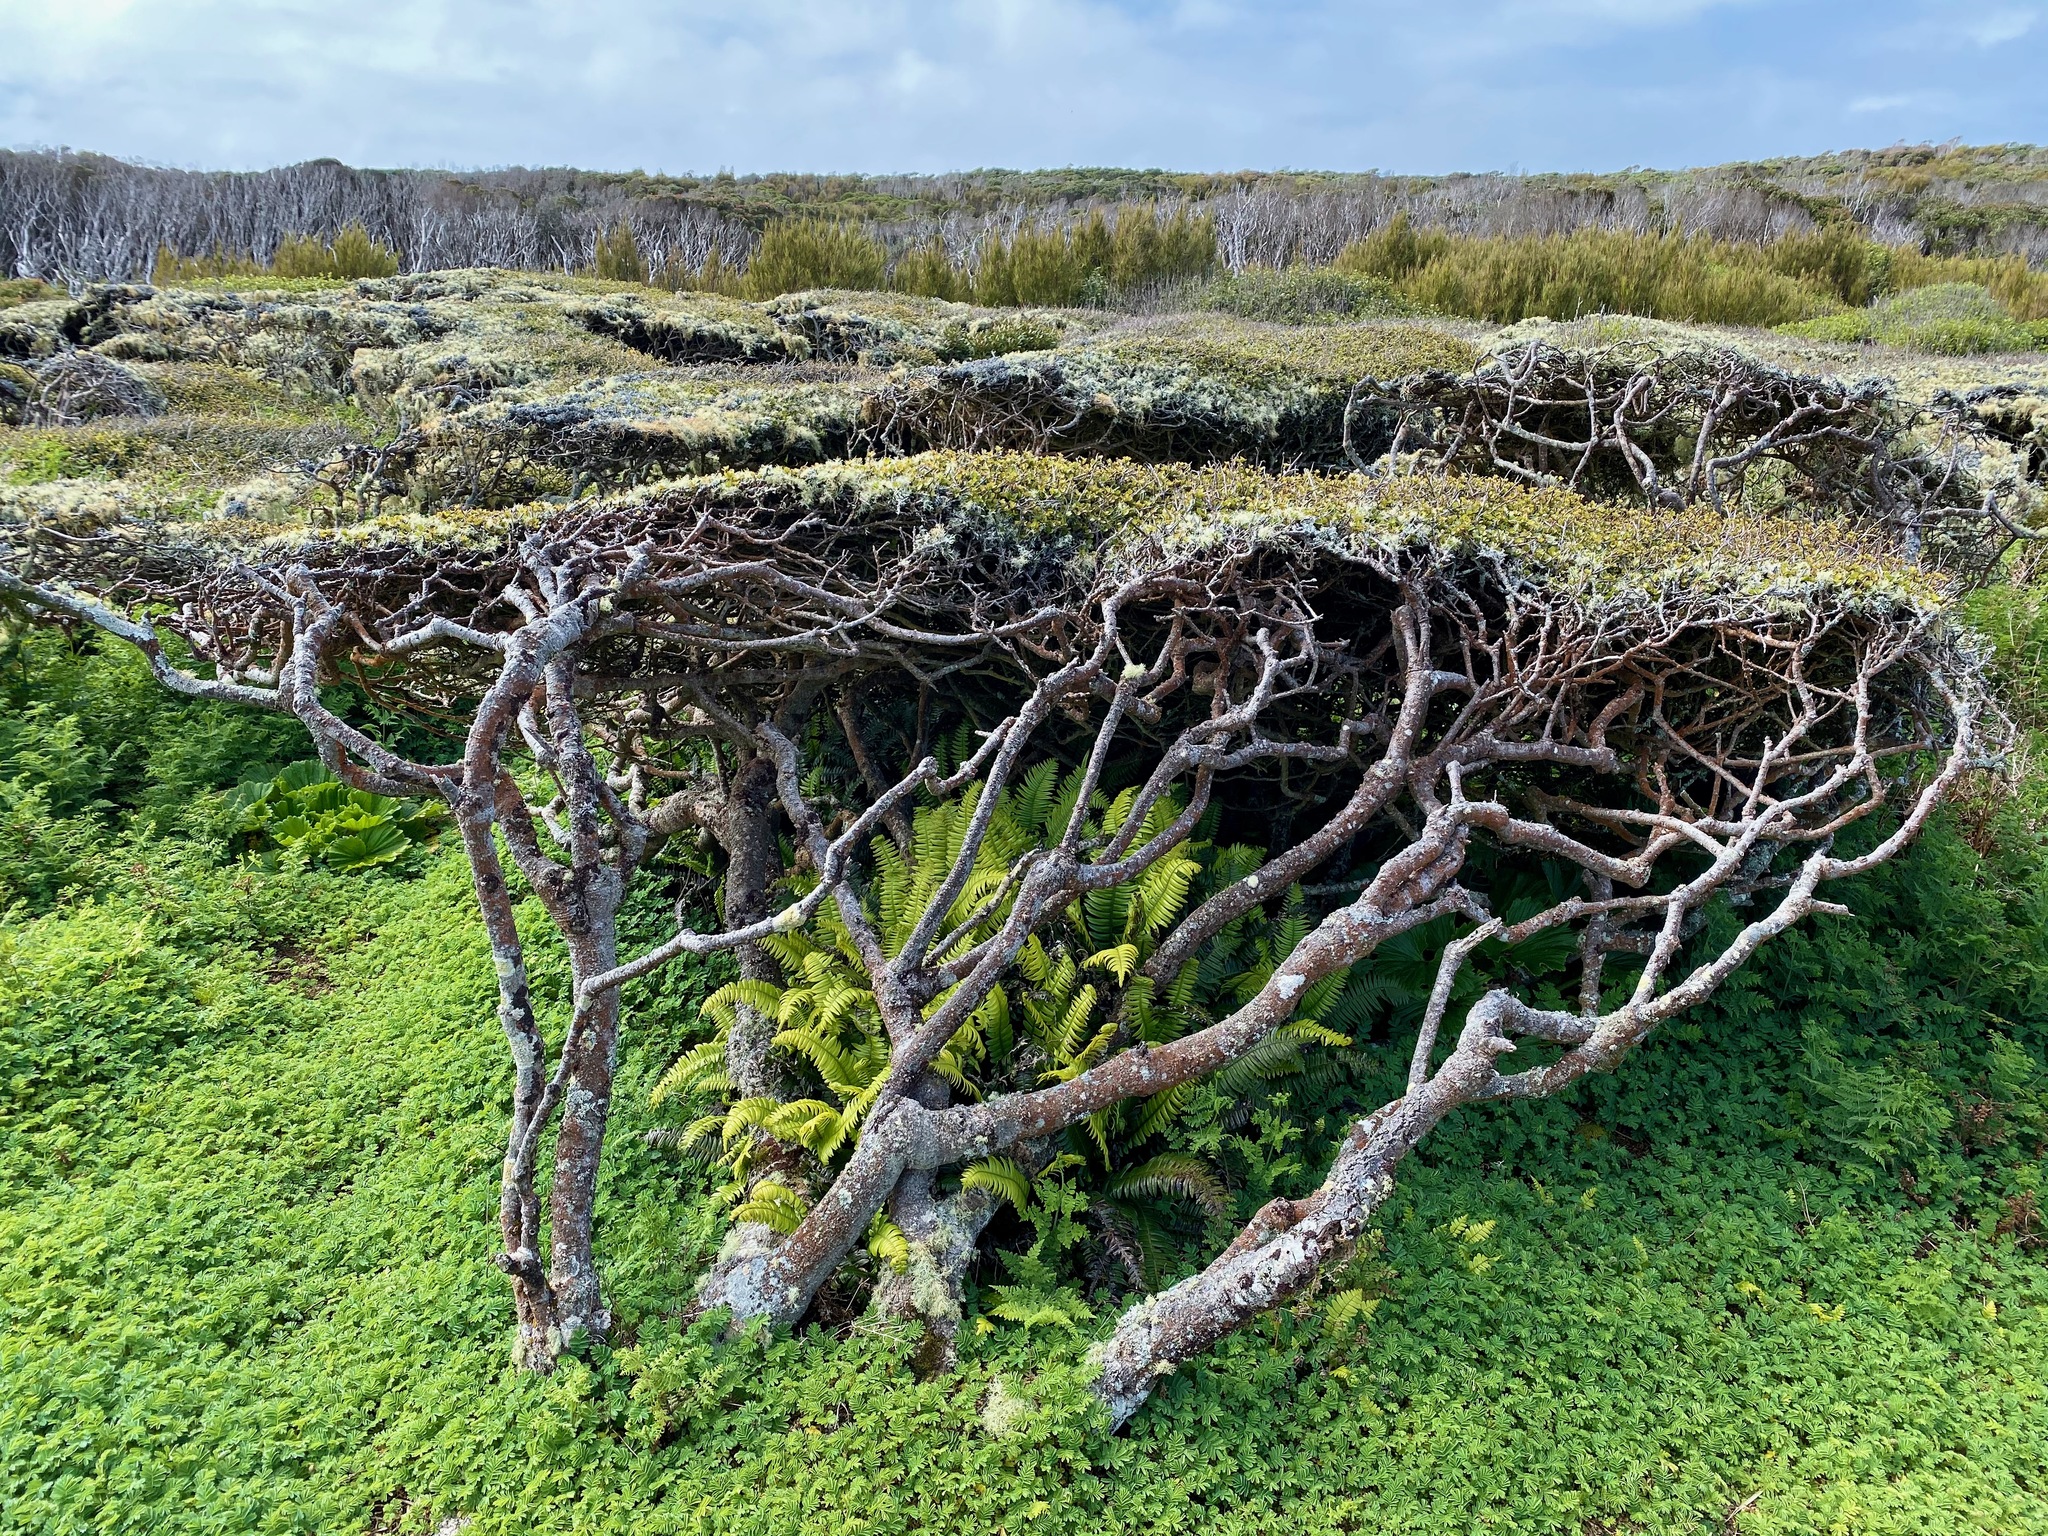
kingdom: Plantae
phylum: Tracheophyta
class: Magnoliopsida
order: Ericales
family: Primulaceae
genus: Myrsine
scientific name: Myrsine divaricata
